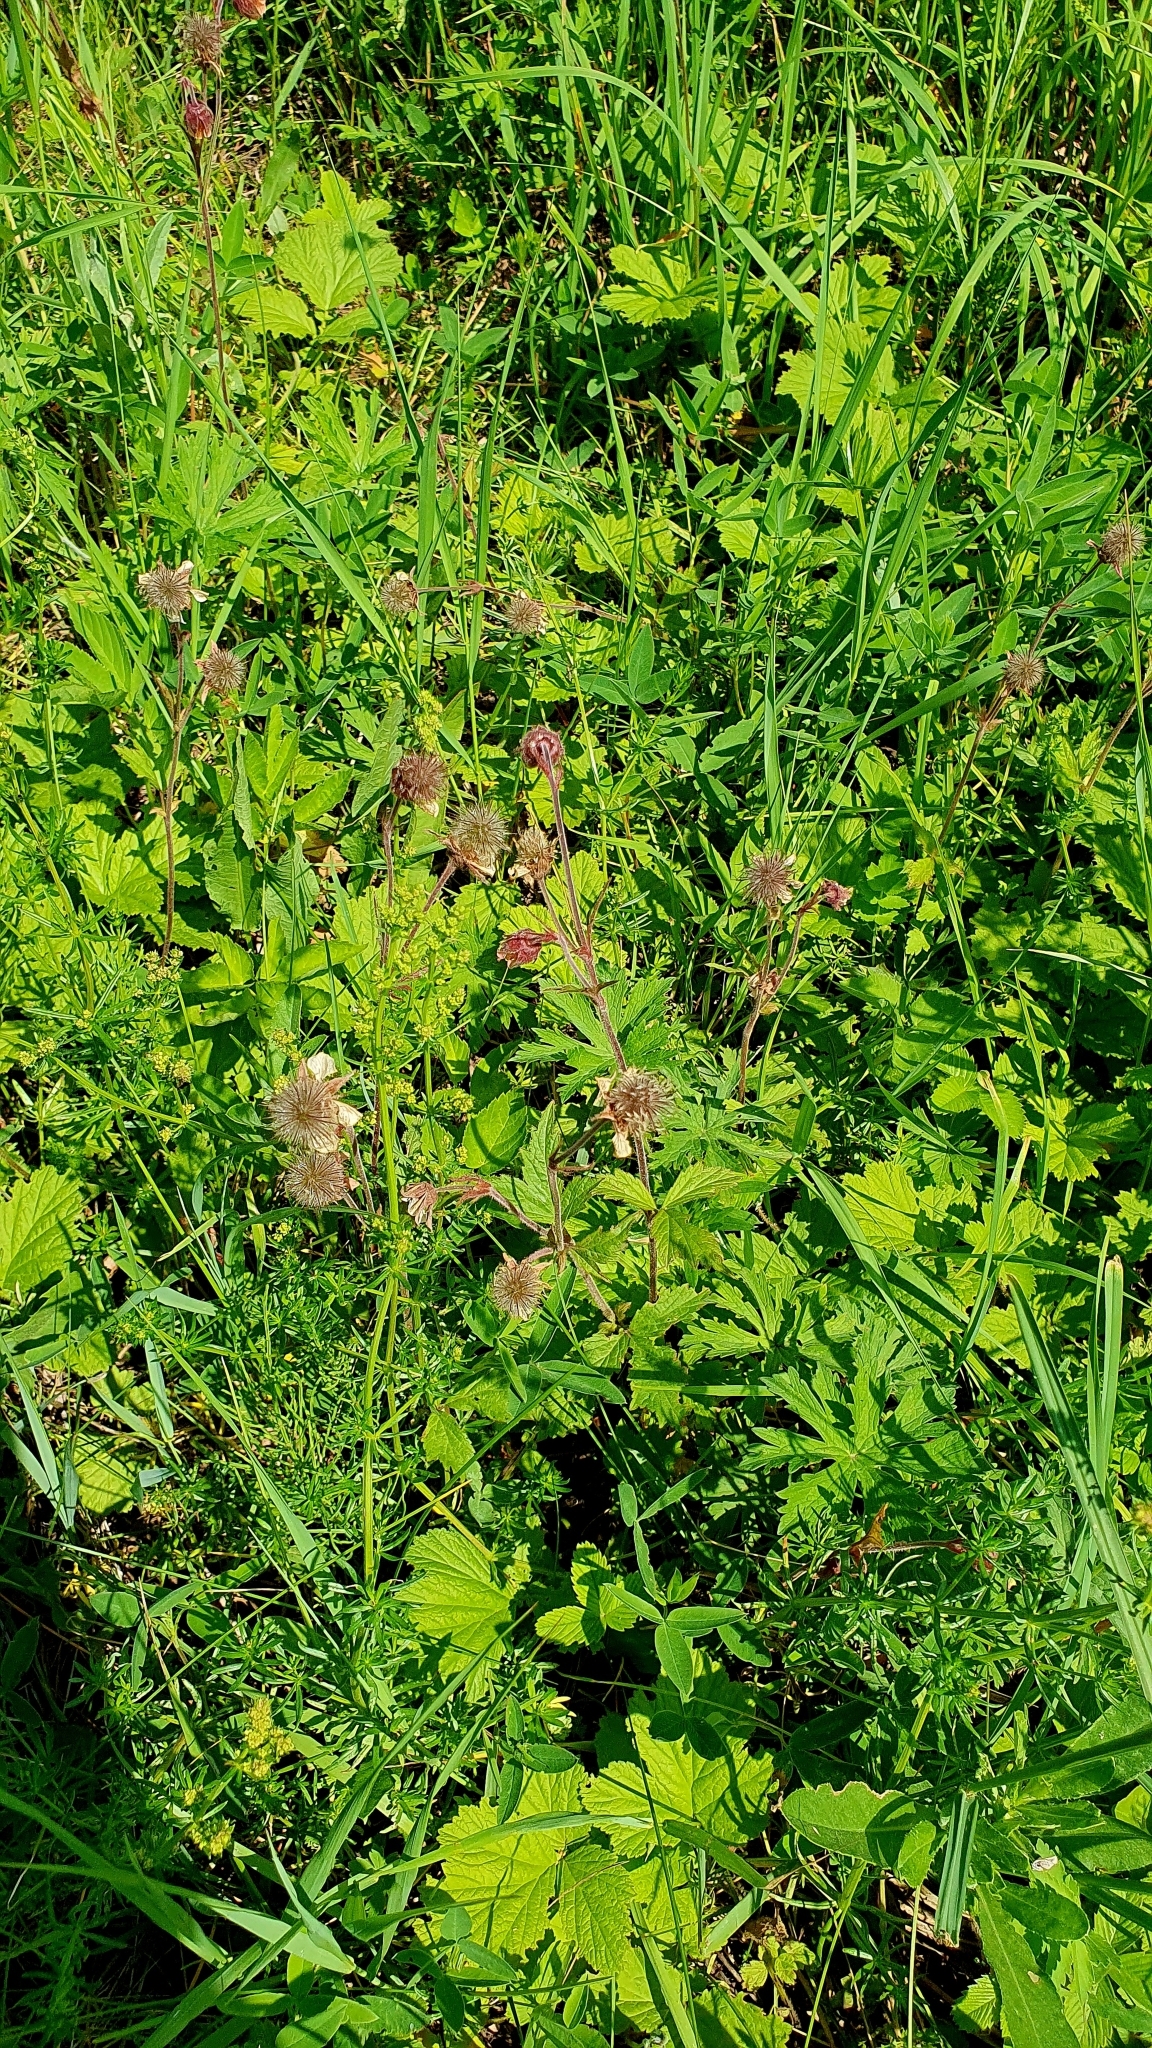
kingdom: Plantae
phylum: Tracheophyta
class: Magnoliopsida
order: Rosales
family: Rosaceae
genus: Geum
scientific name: Geum rivale
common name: Water avens
